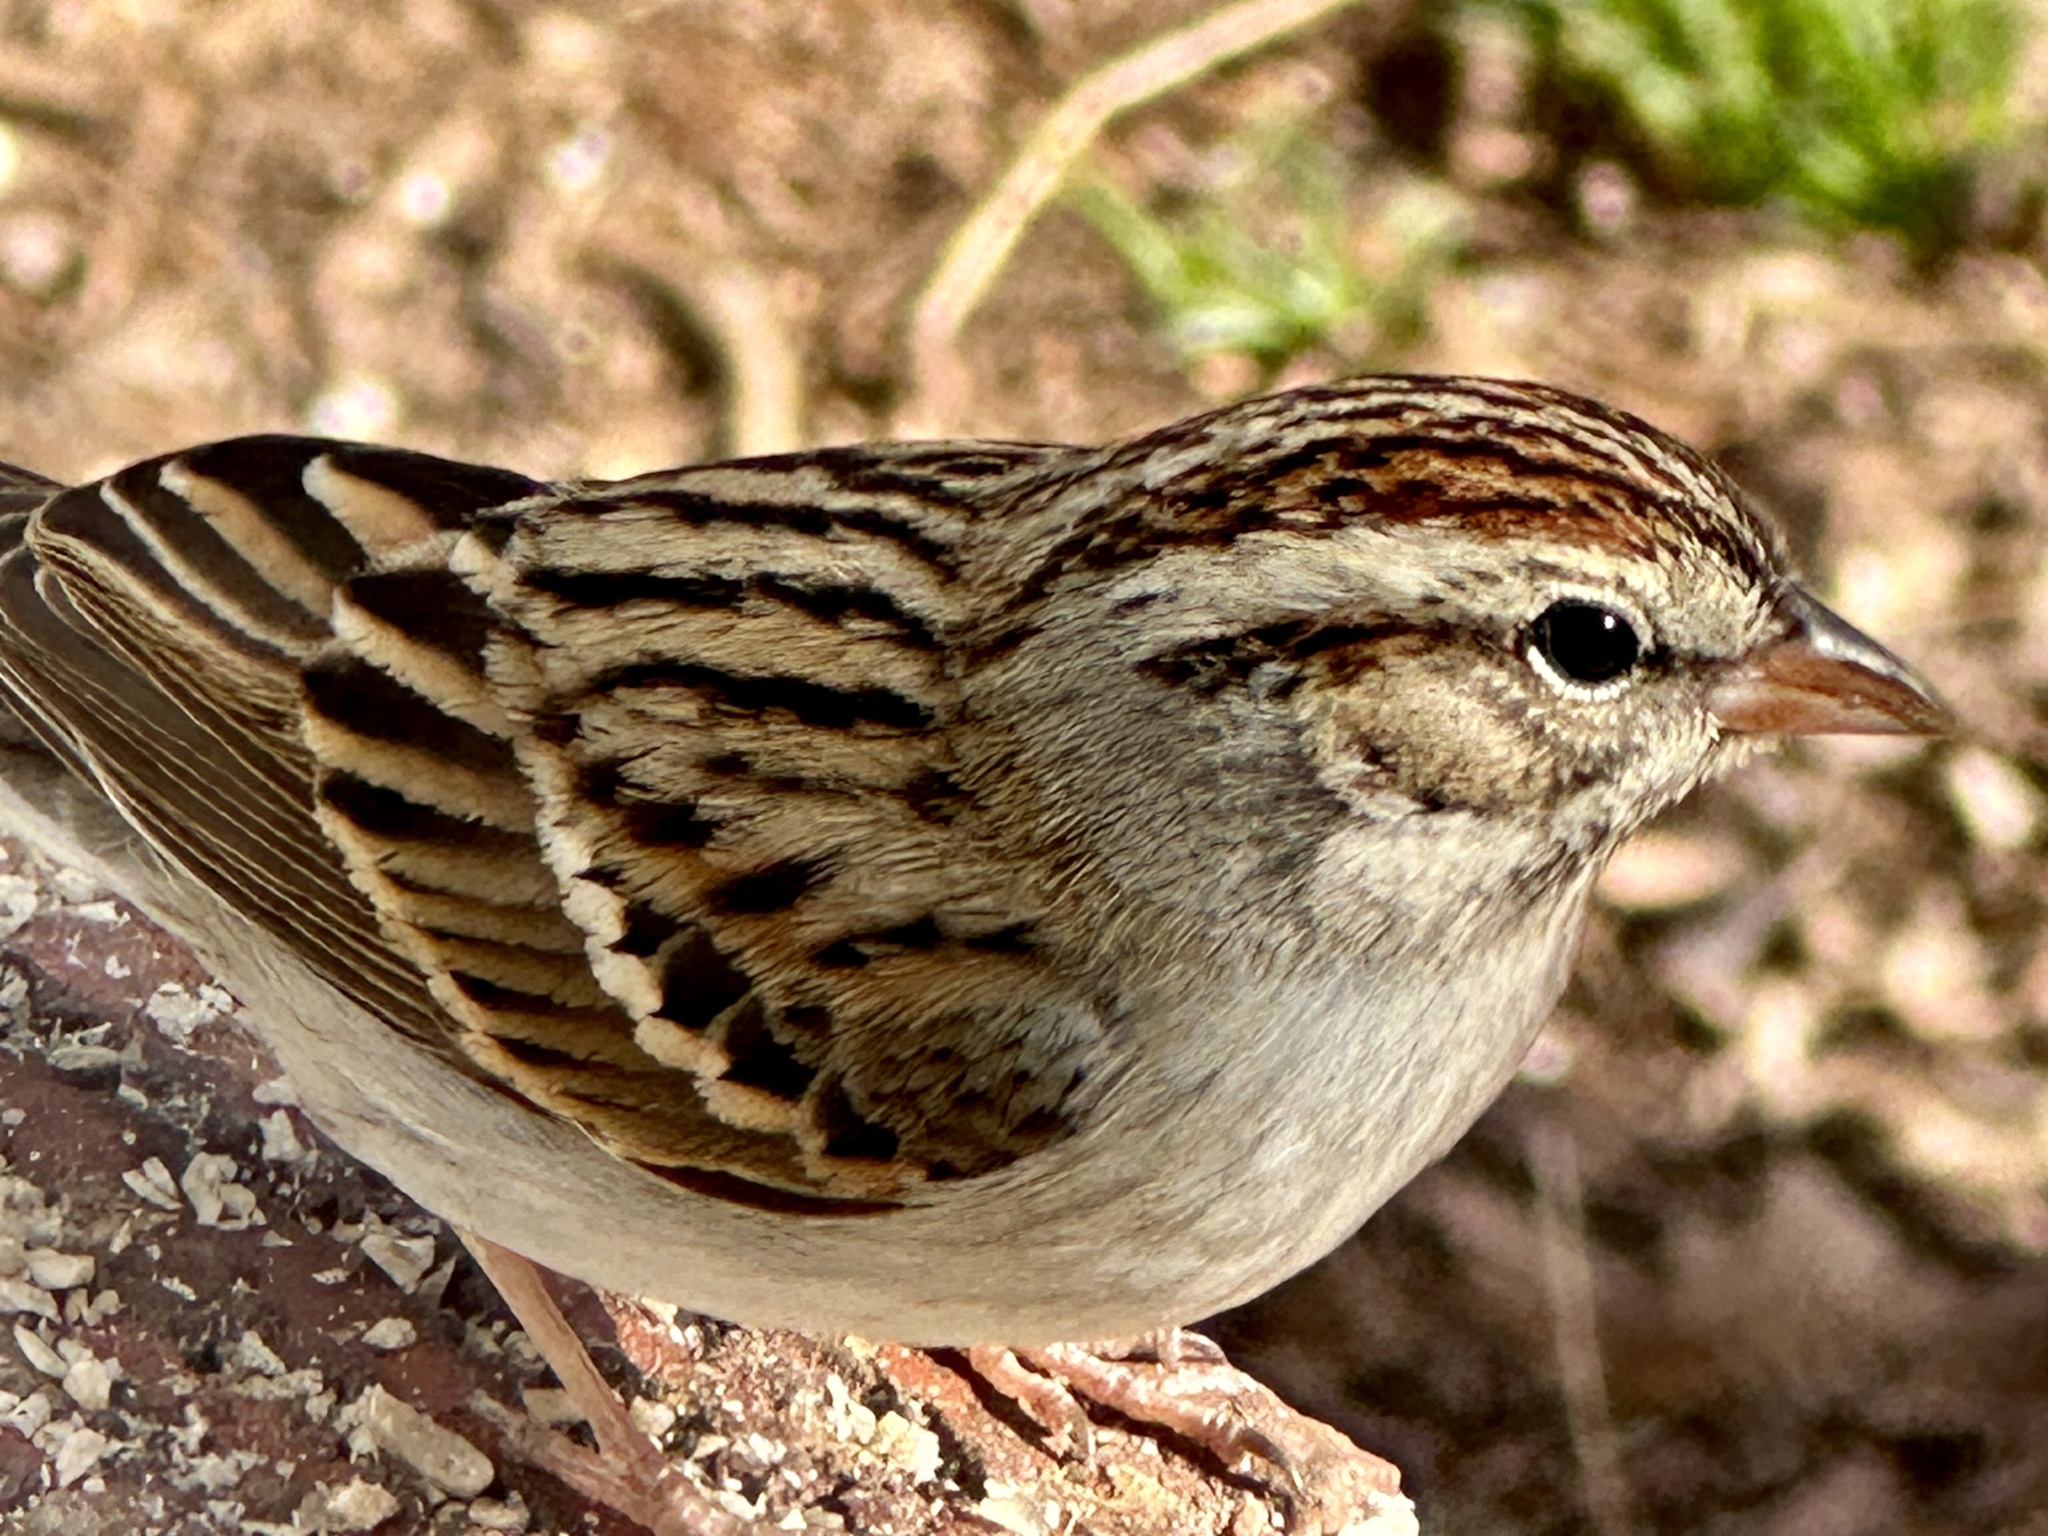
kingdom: Animalia
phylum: Chordata
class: Aves
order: Passeriformes
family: Passerellidae
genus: Spizella
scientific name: Spizella passerina
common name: Chipping sparrow
